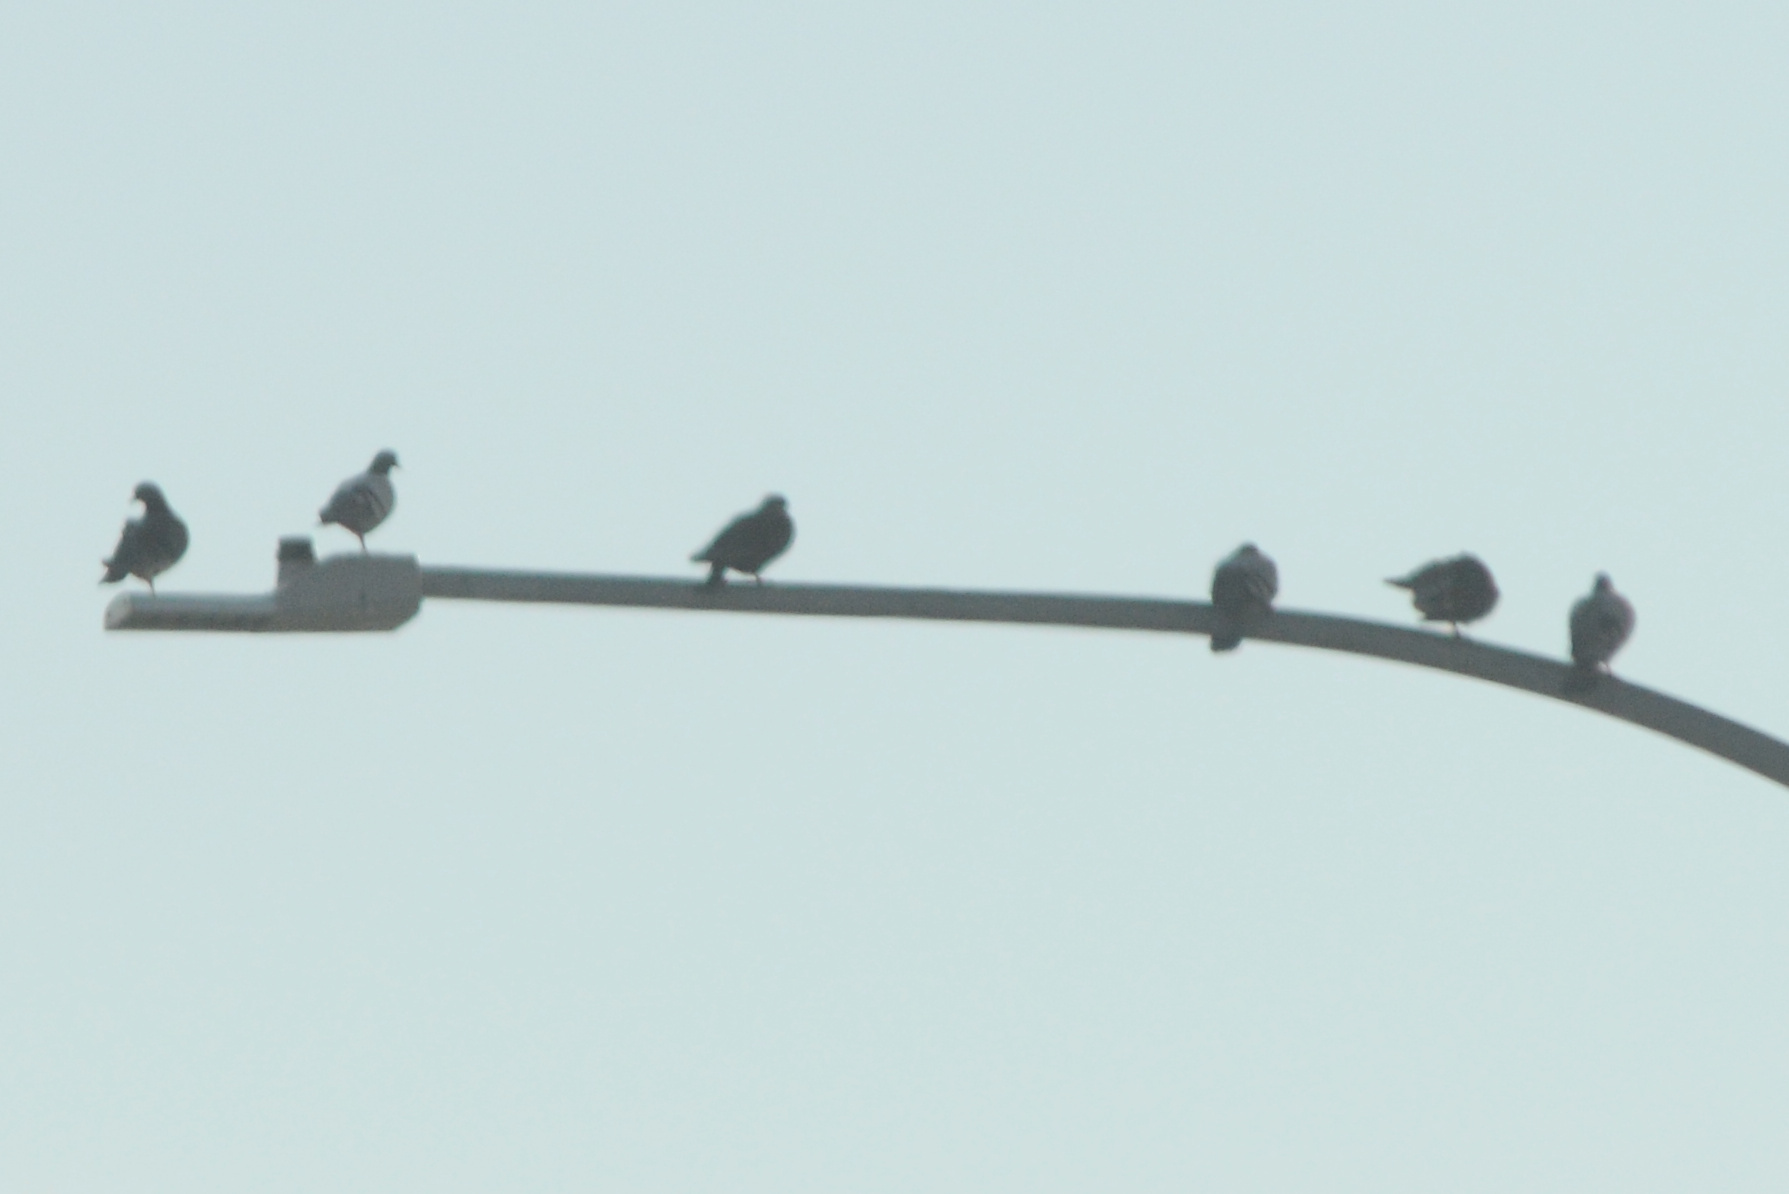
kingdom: Animalia
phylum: Chordata
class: Aves
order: Columbiformes
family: Columbidae
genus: Columba
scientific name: Columba livia
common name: Rock pigeon
